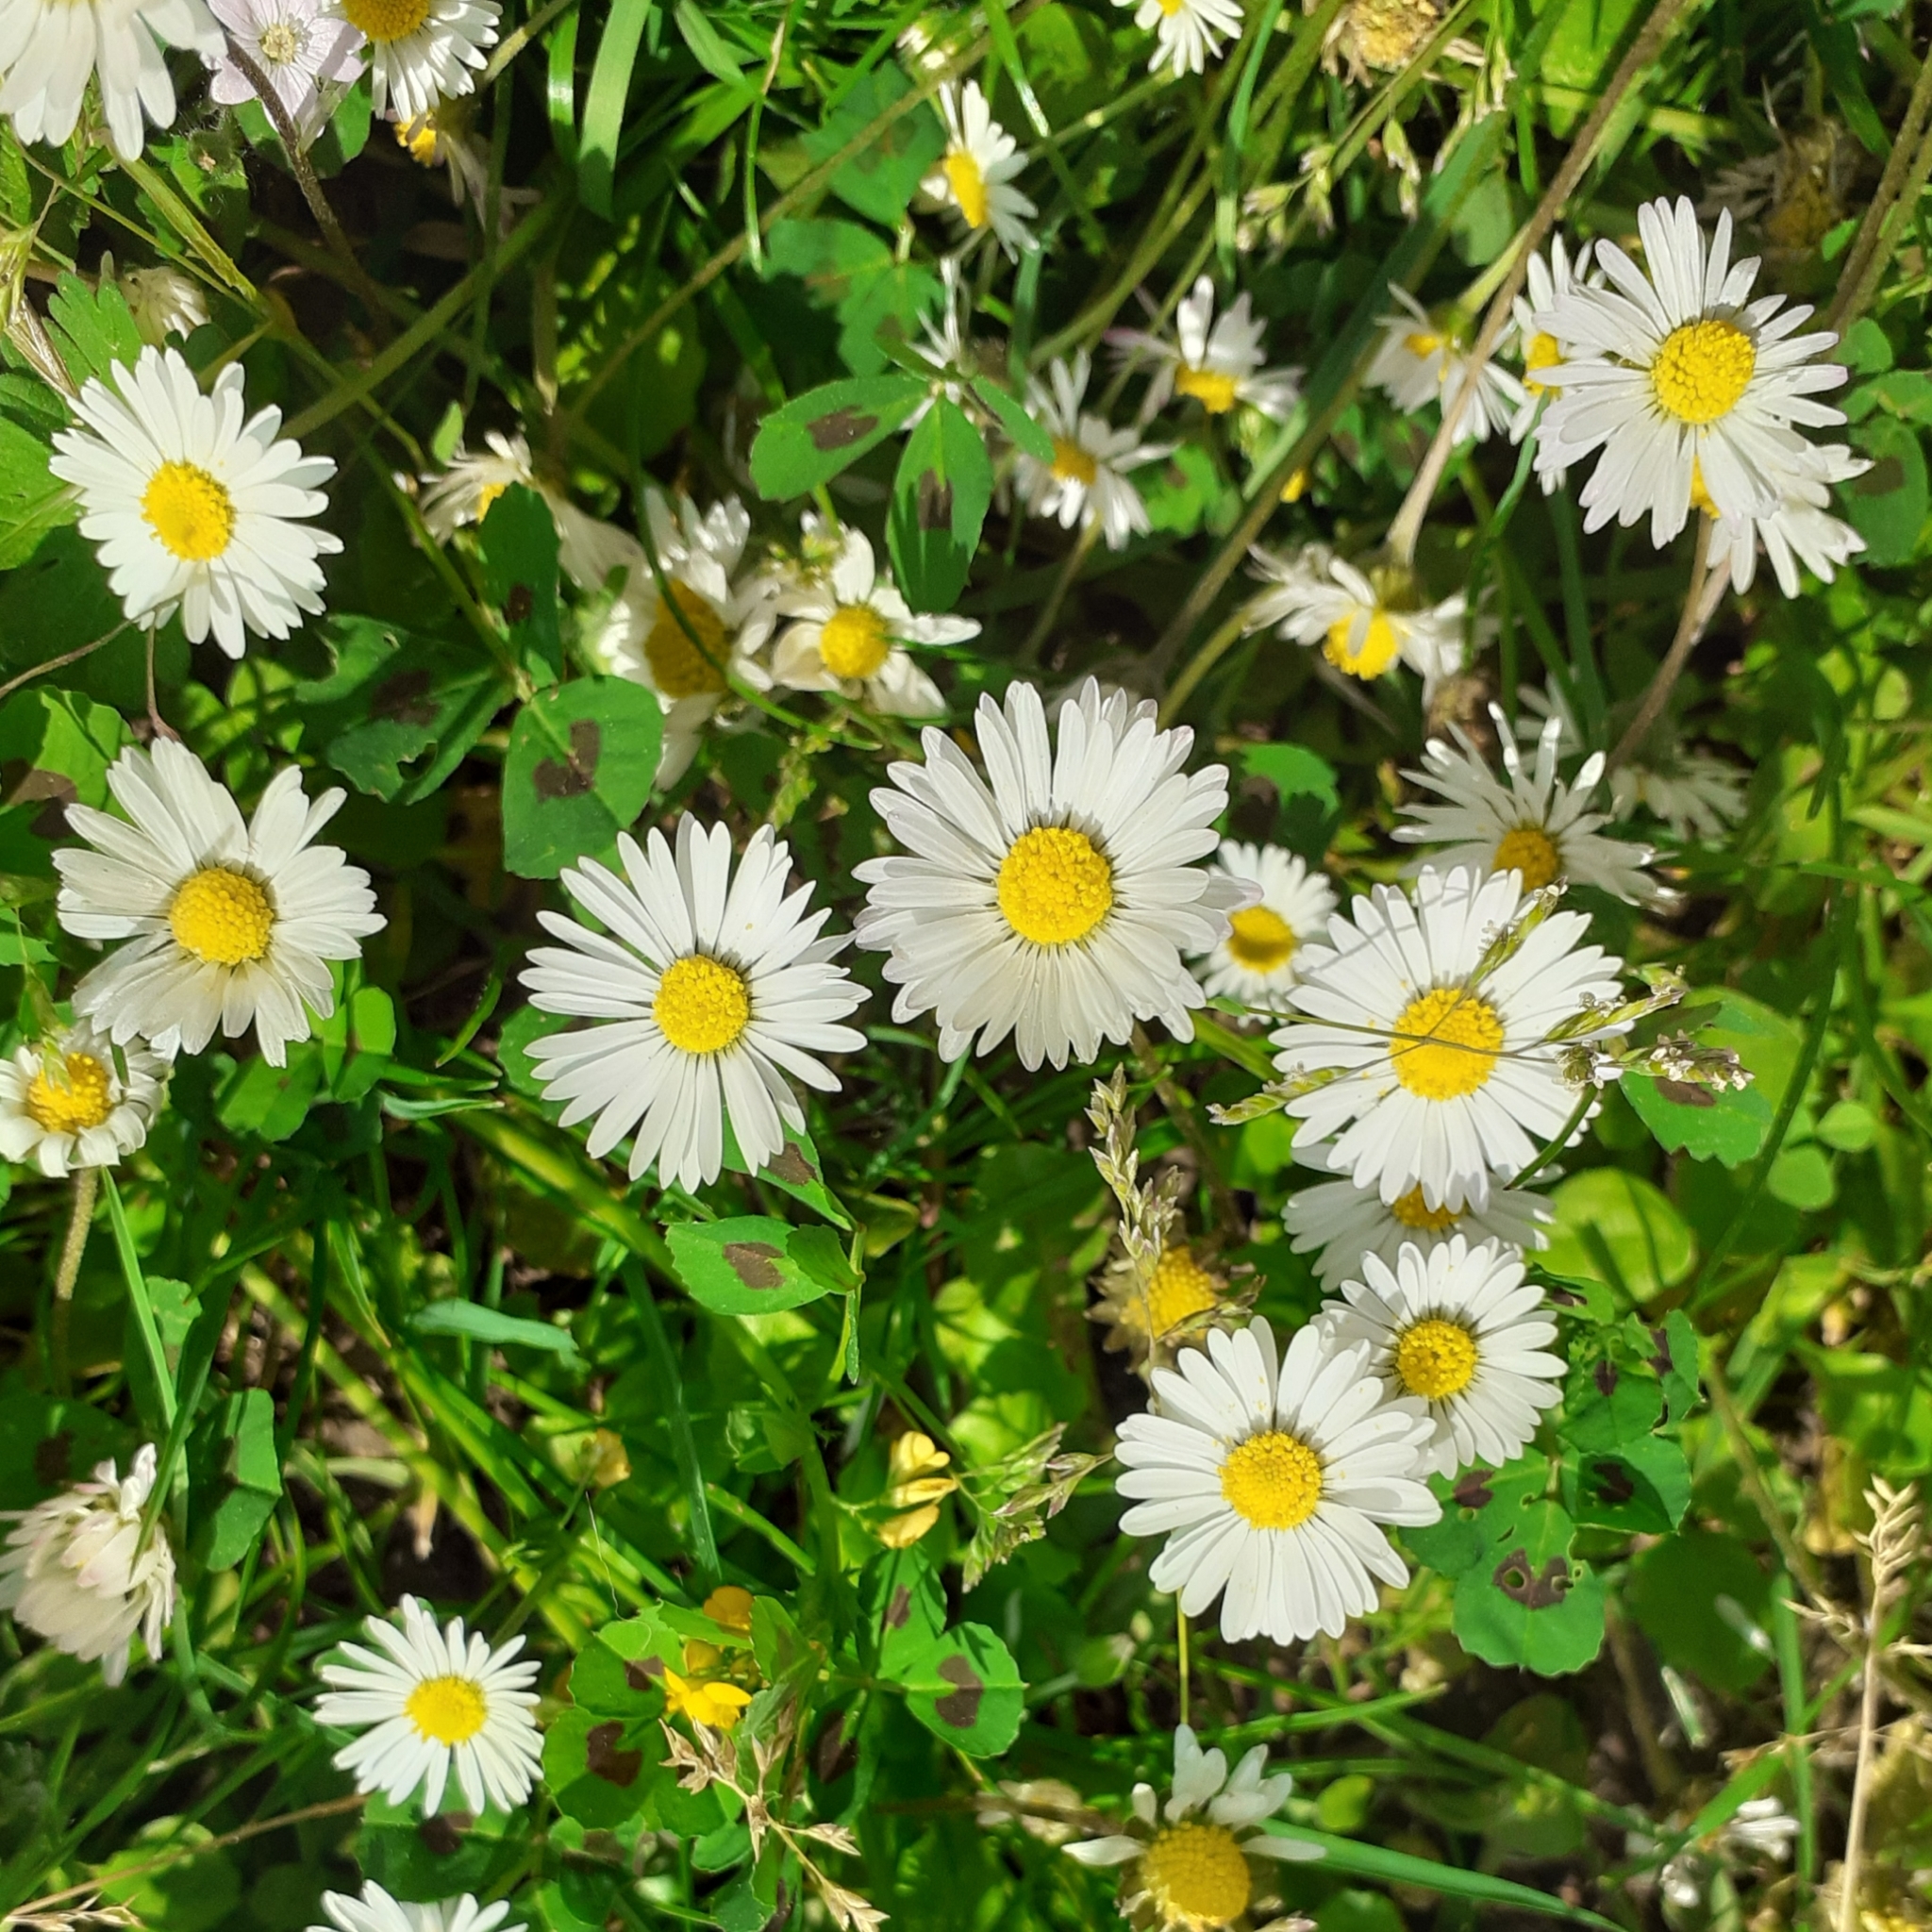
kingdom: Plantae
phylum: Tracheophyta
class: Magnoliopsida
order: Asterales
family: Asteraceae
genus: Bellis
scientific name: Bellis perennis
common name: Lawndaisy
